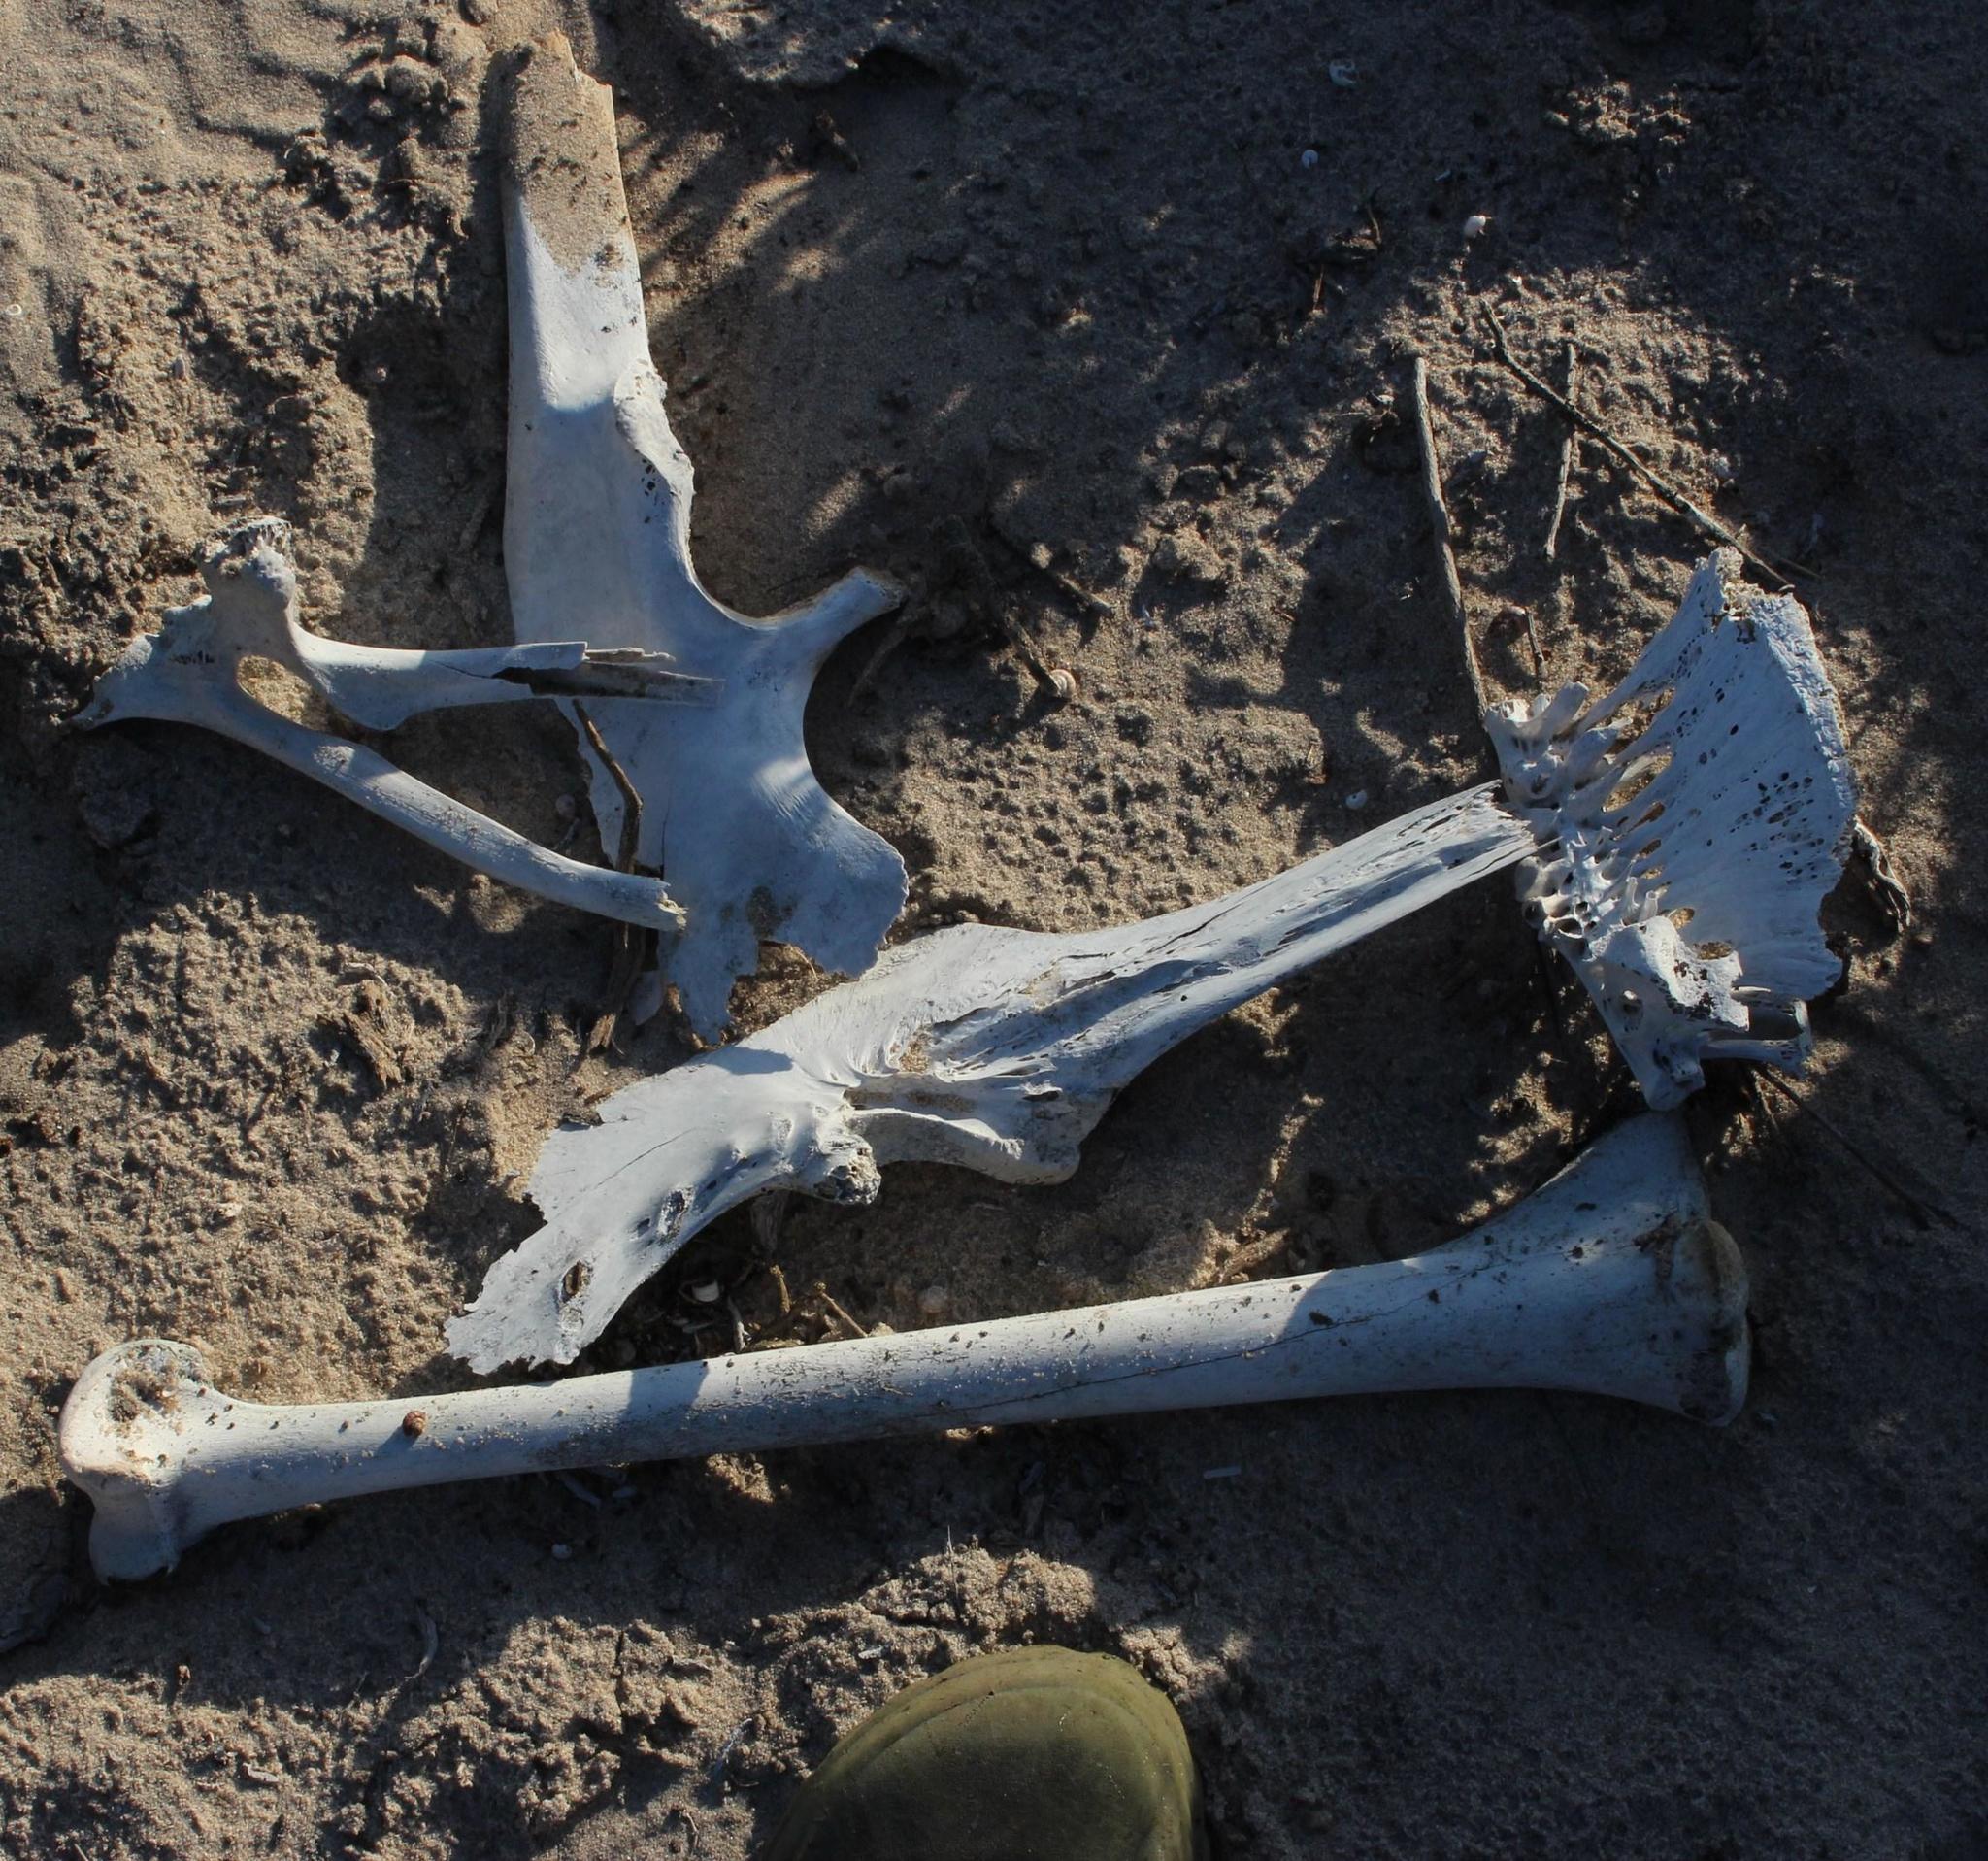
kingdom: Animalia
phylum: Chordata
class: Aves
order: Struthioniformes
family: Struthionidae
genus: Struthio
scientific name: Struthio camelus
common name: Common ostrich
